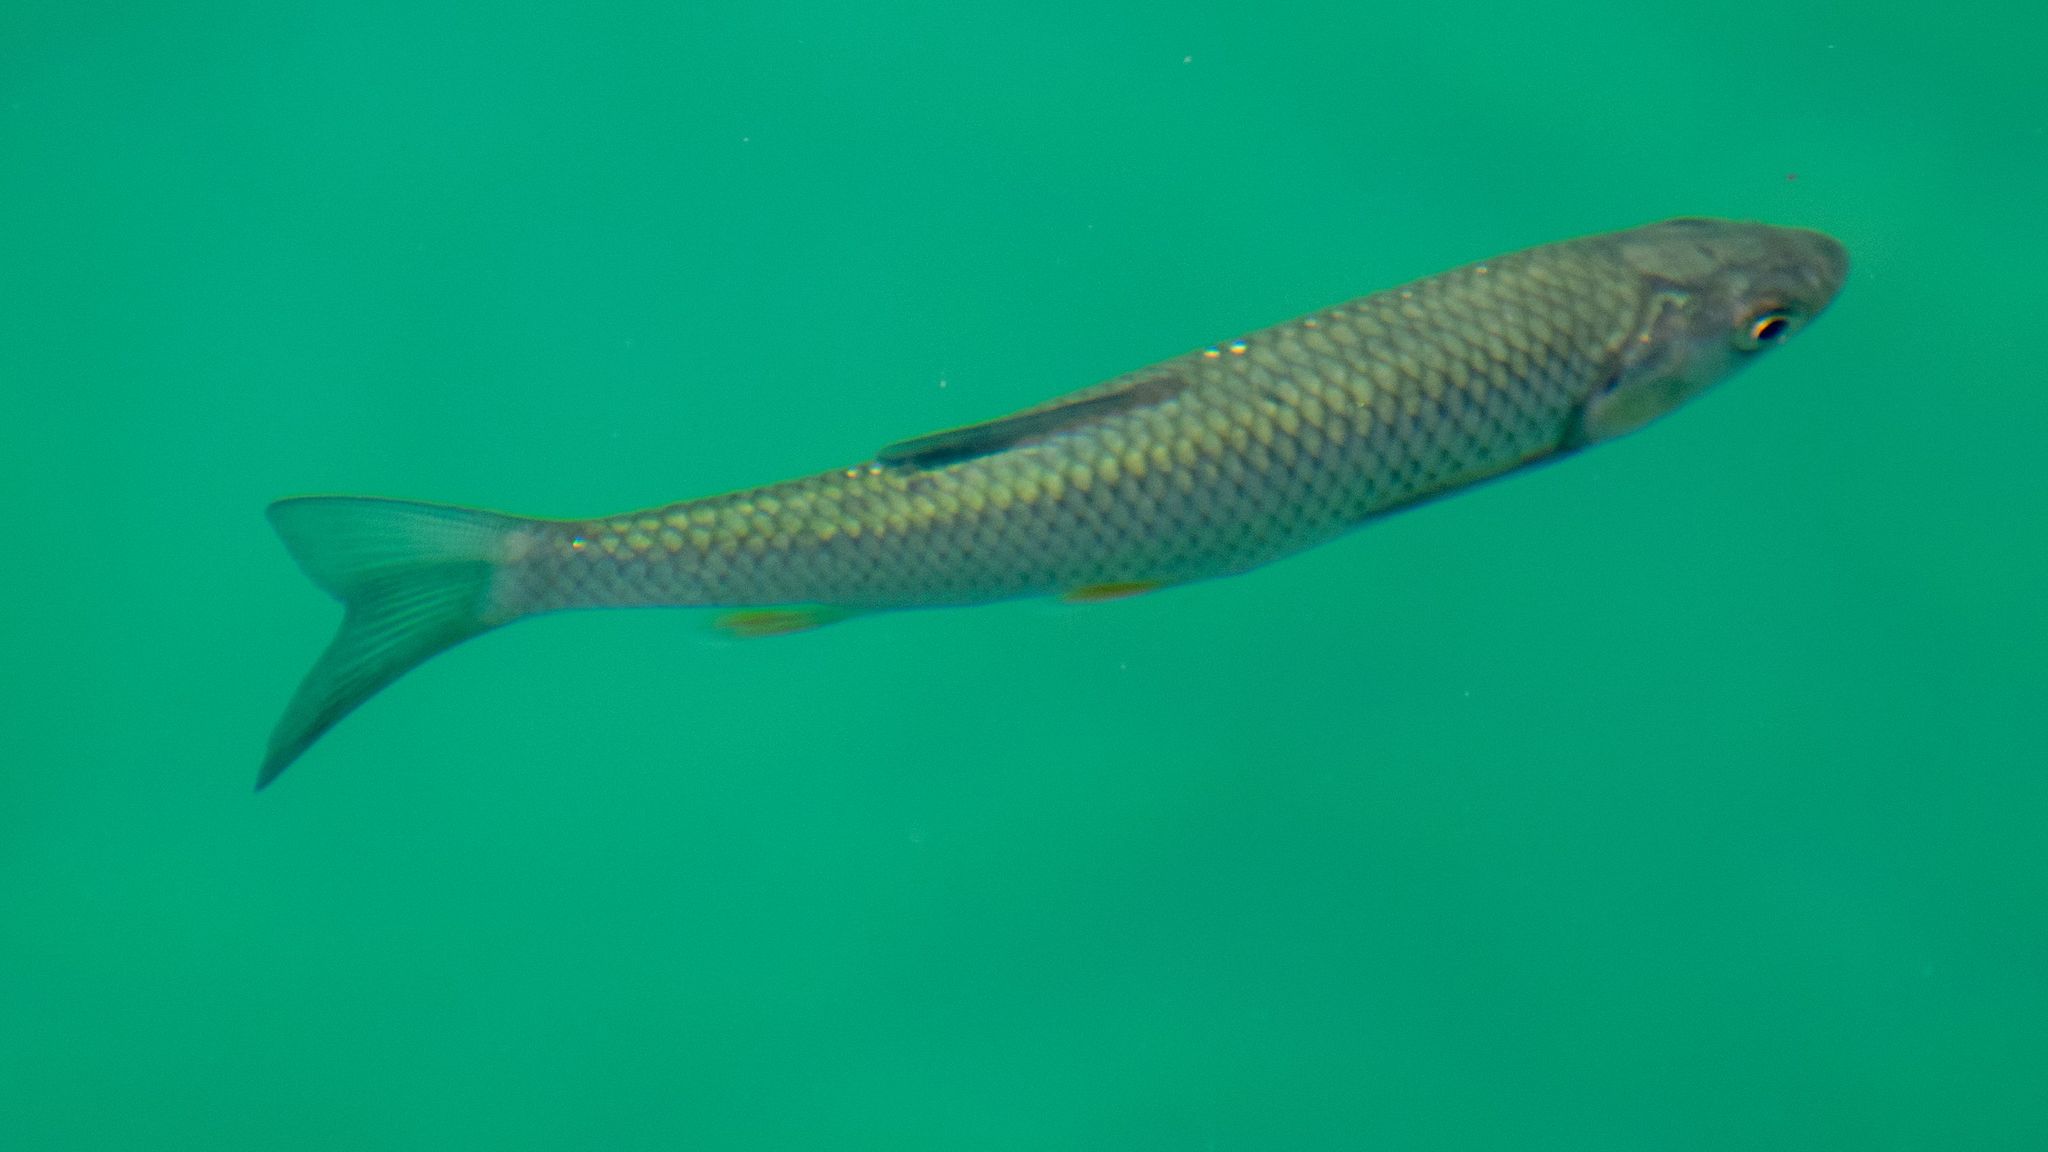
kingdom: Animalia
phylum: Chordata
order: Cypriniformes
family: Cyprinidae
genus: Squalius
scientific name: Squalius cephalus
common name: Chub
